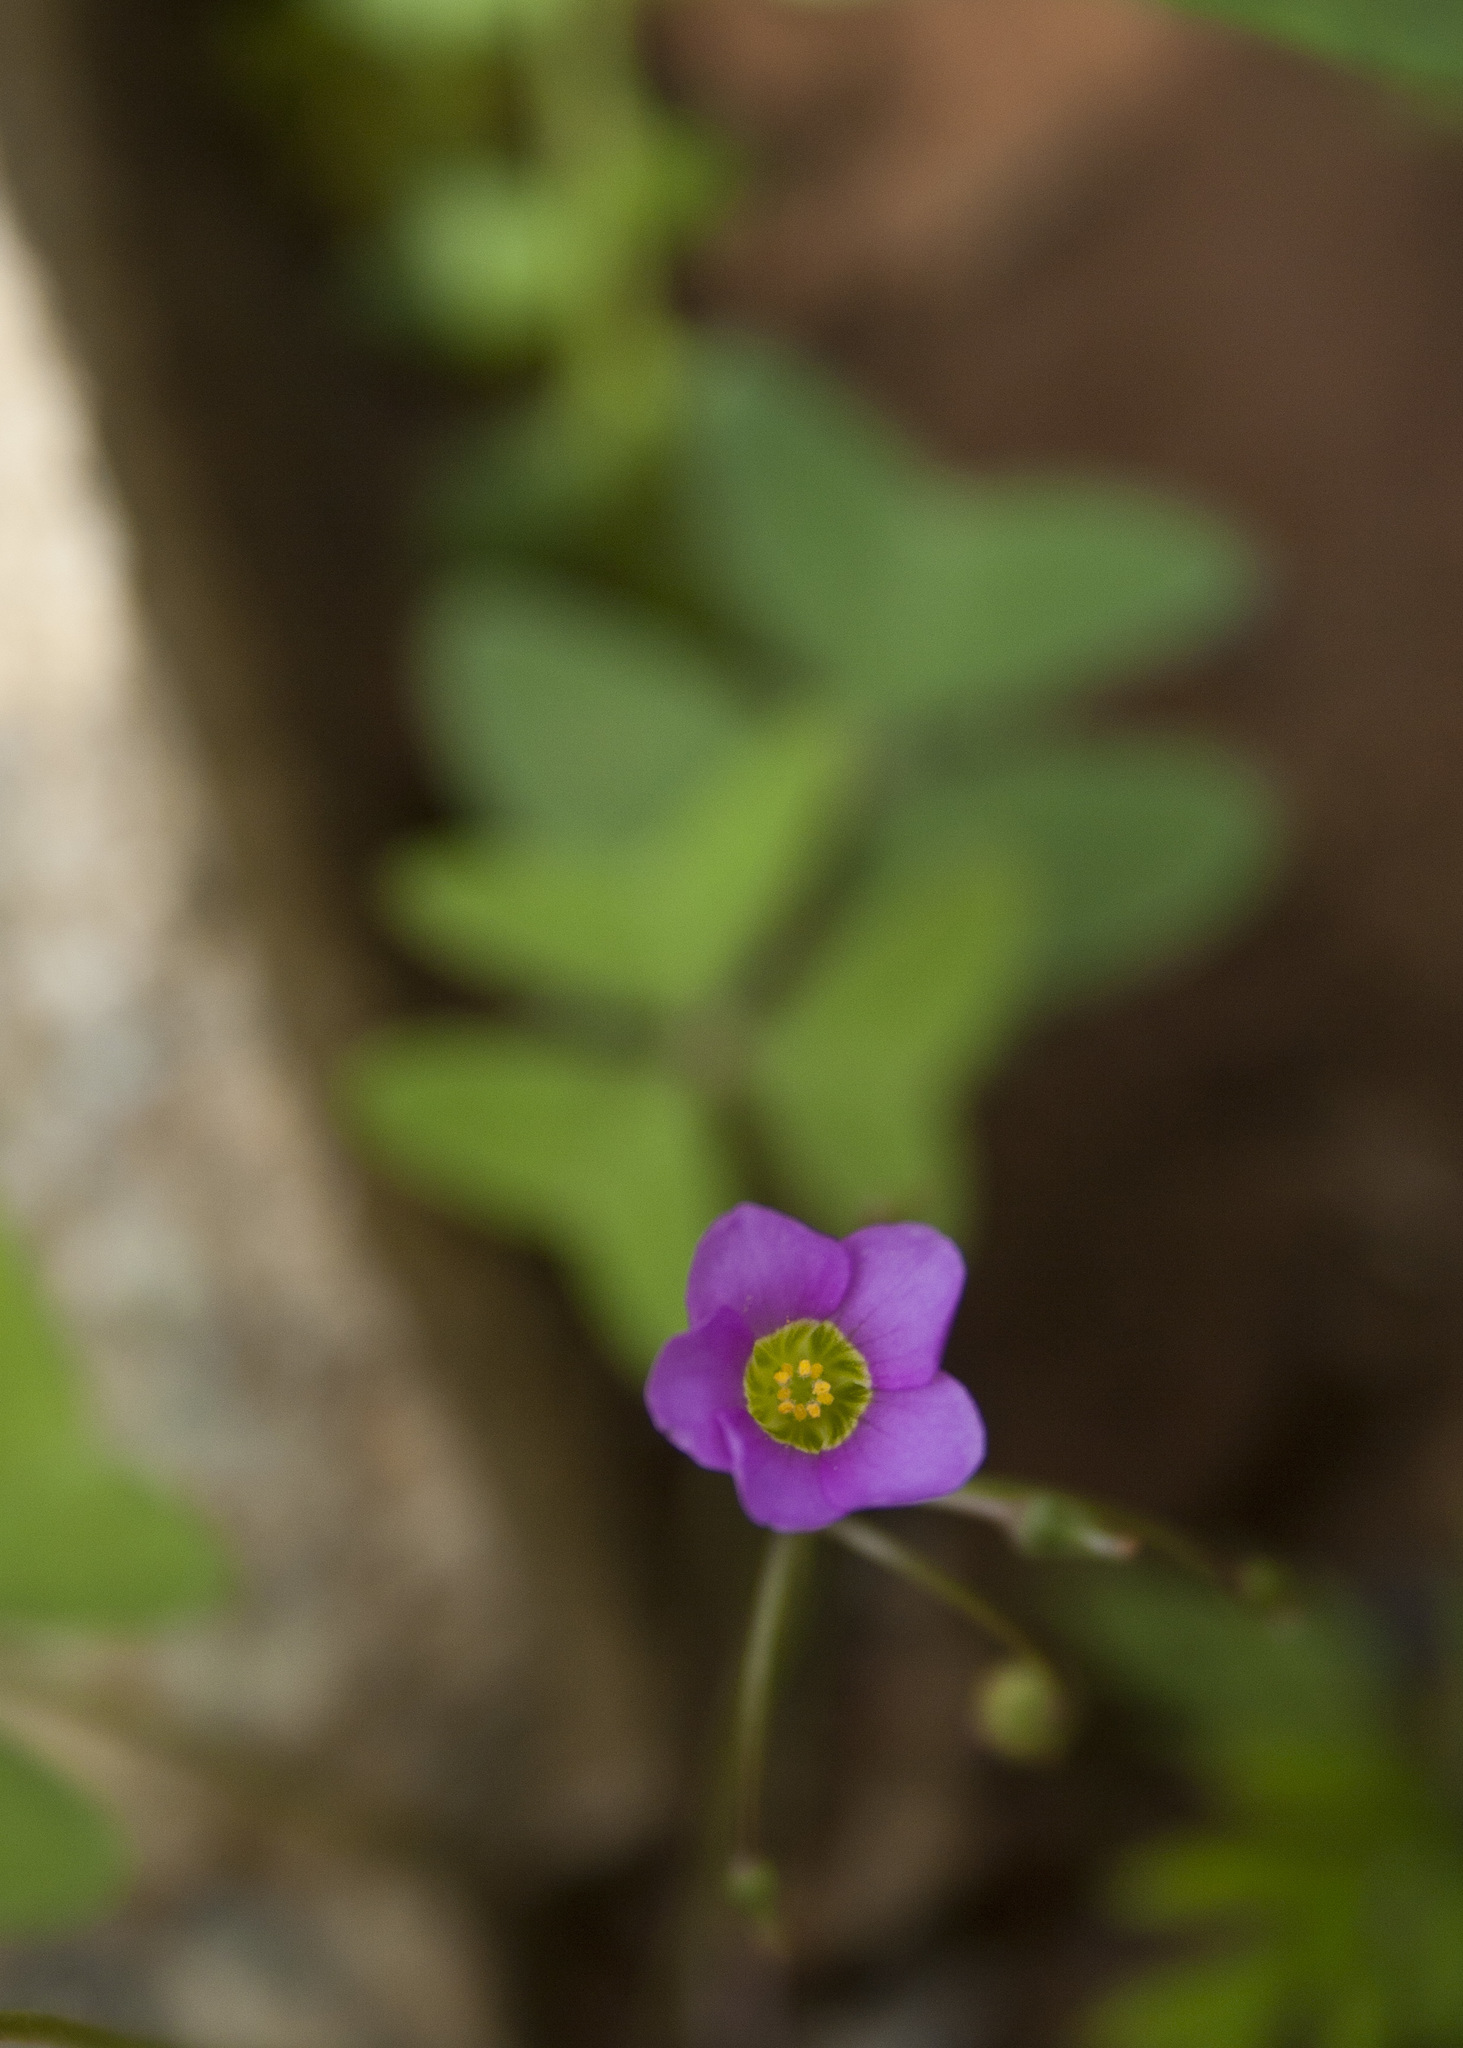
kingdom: Plantae
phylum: Tracheophyta
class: Magnoliopsida
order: Oxalidales
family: Oxalidaceae
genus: Oxalis
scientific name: Oxalis latifolia
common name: Garden pink-sorrel
